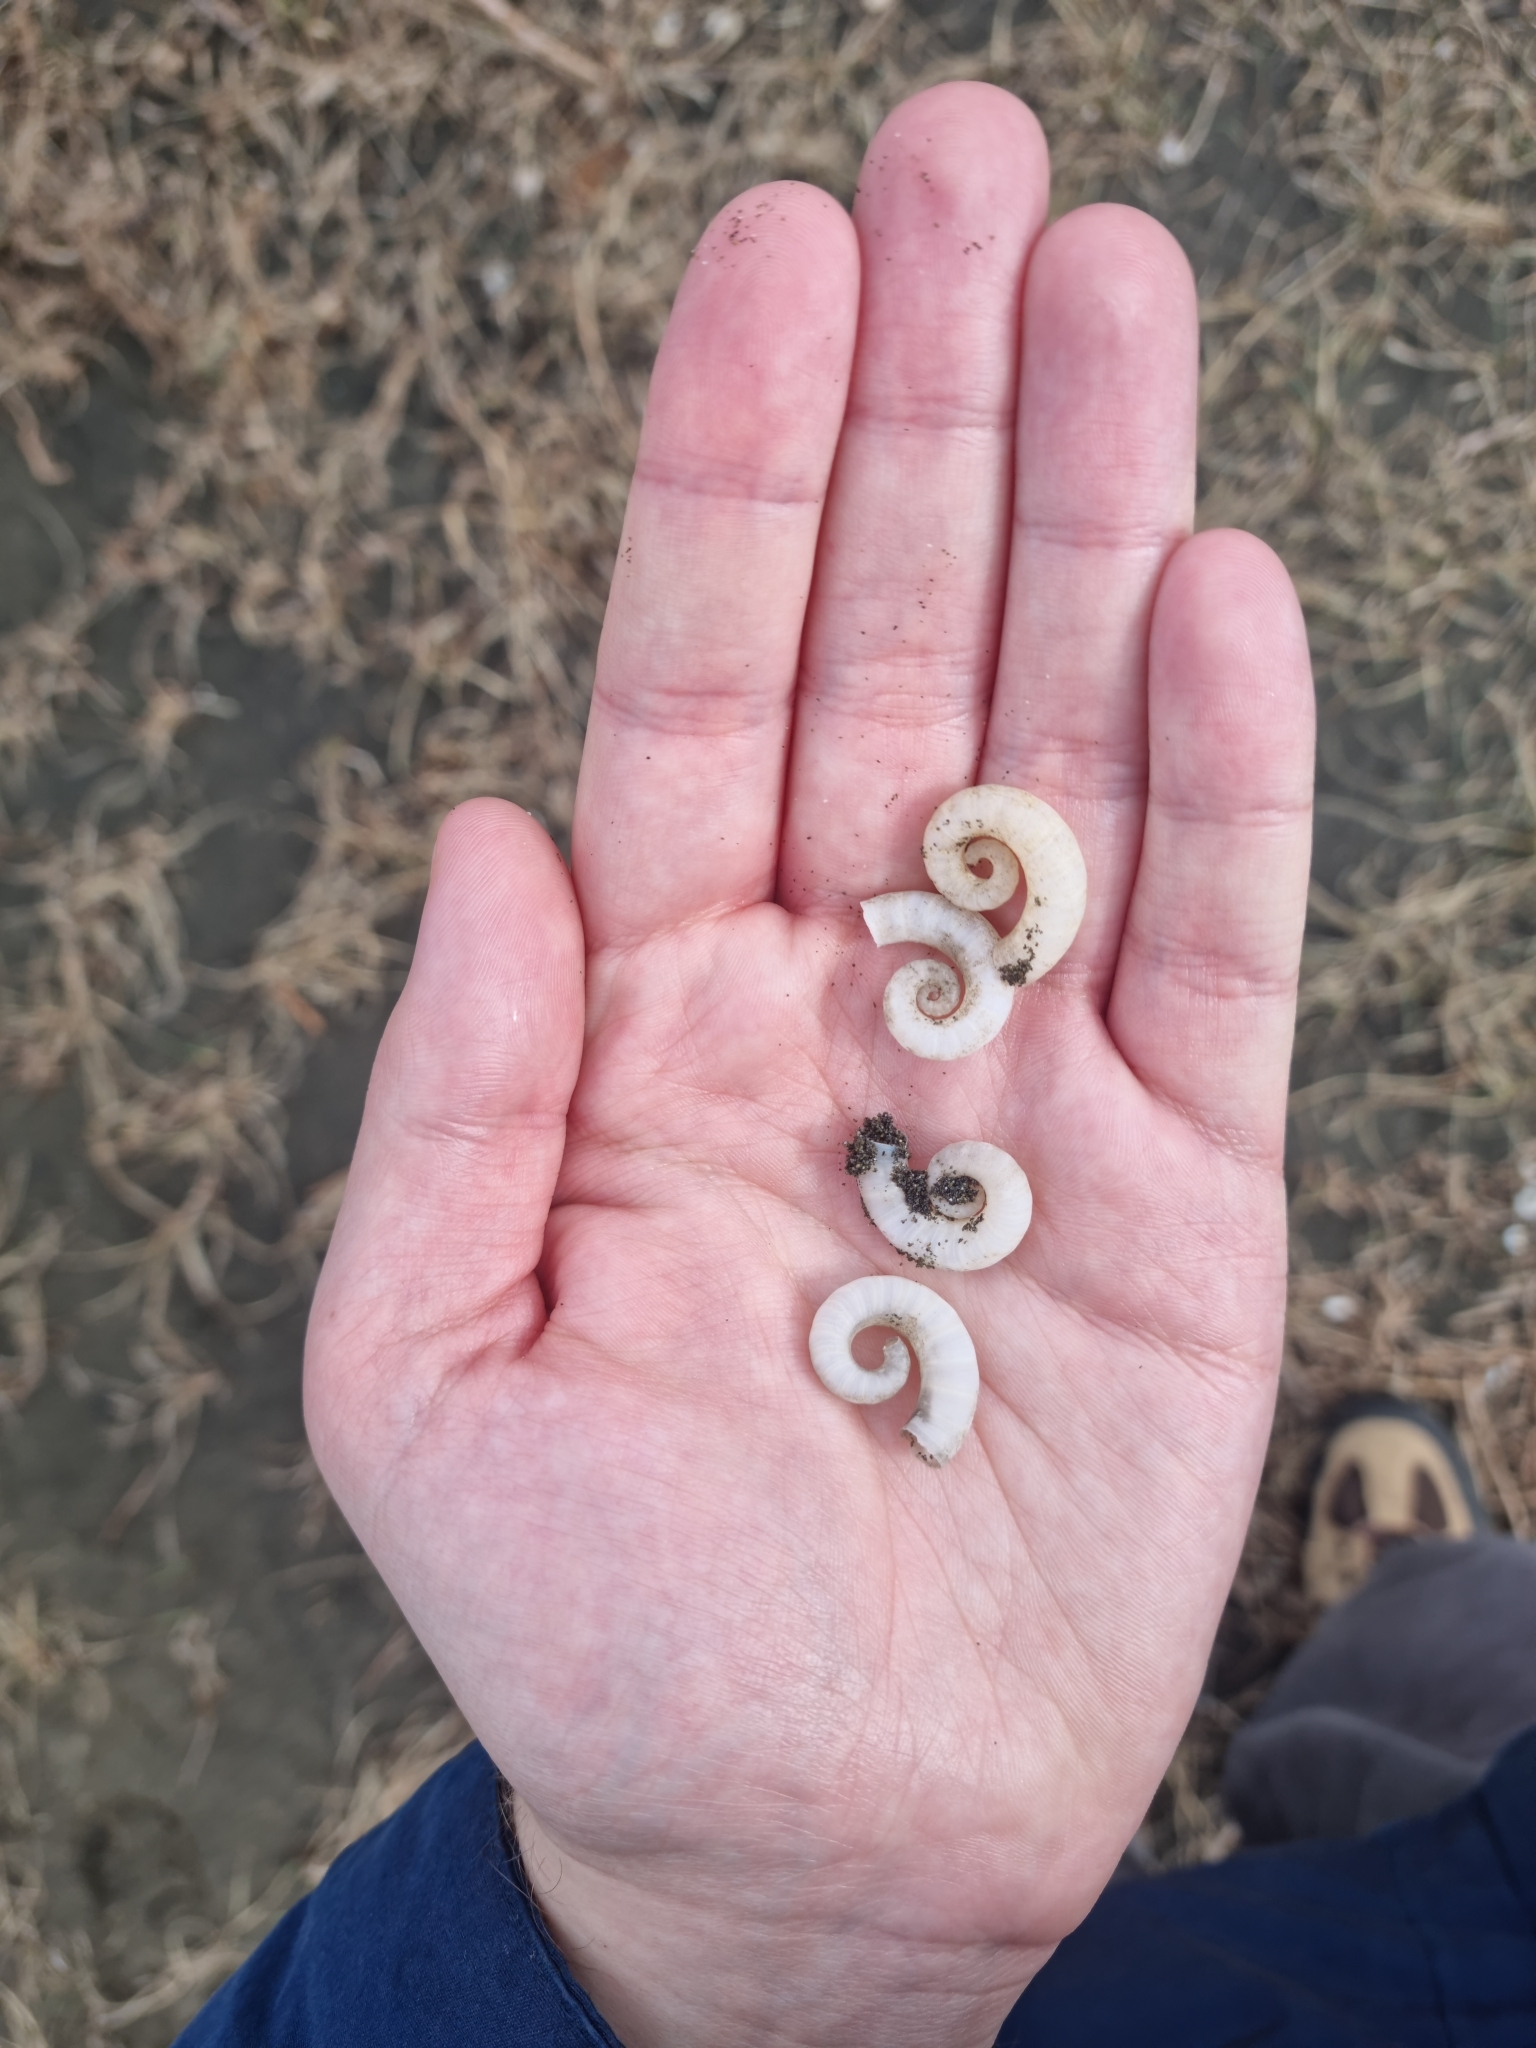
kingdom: Animalia
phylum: Mollusca
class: Cephalopoda
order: Spirulida
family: Spirulidae
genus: Spirula
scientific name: Spirula spirula
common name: Ram's horn squid
